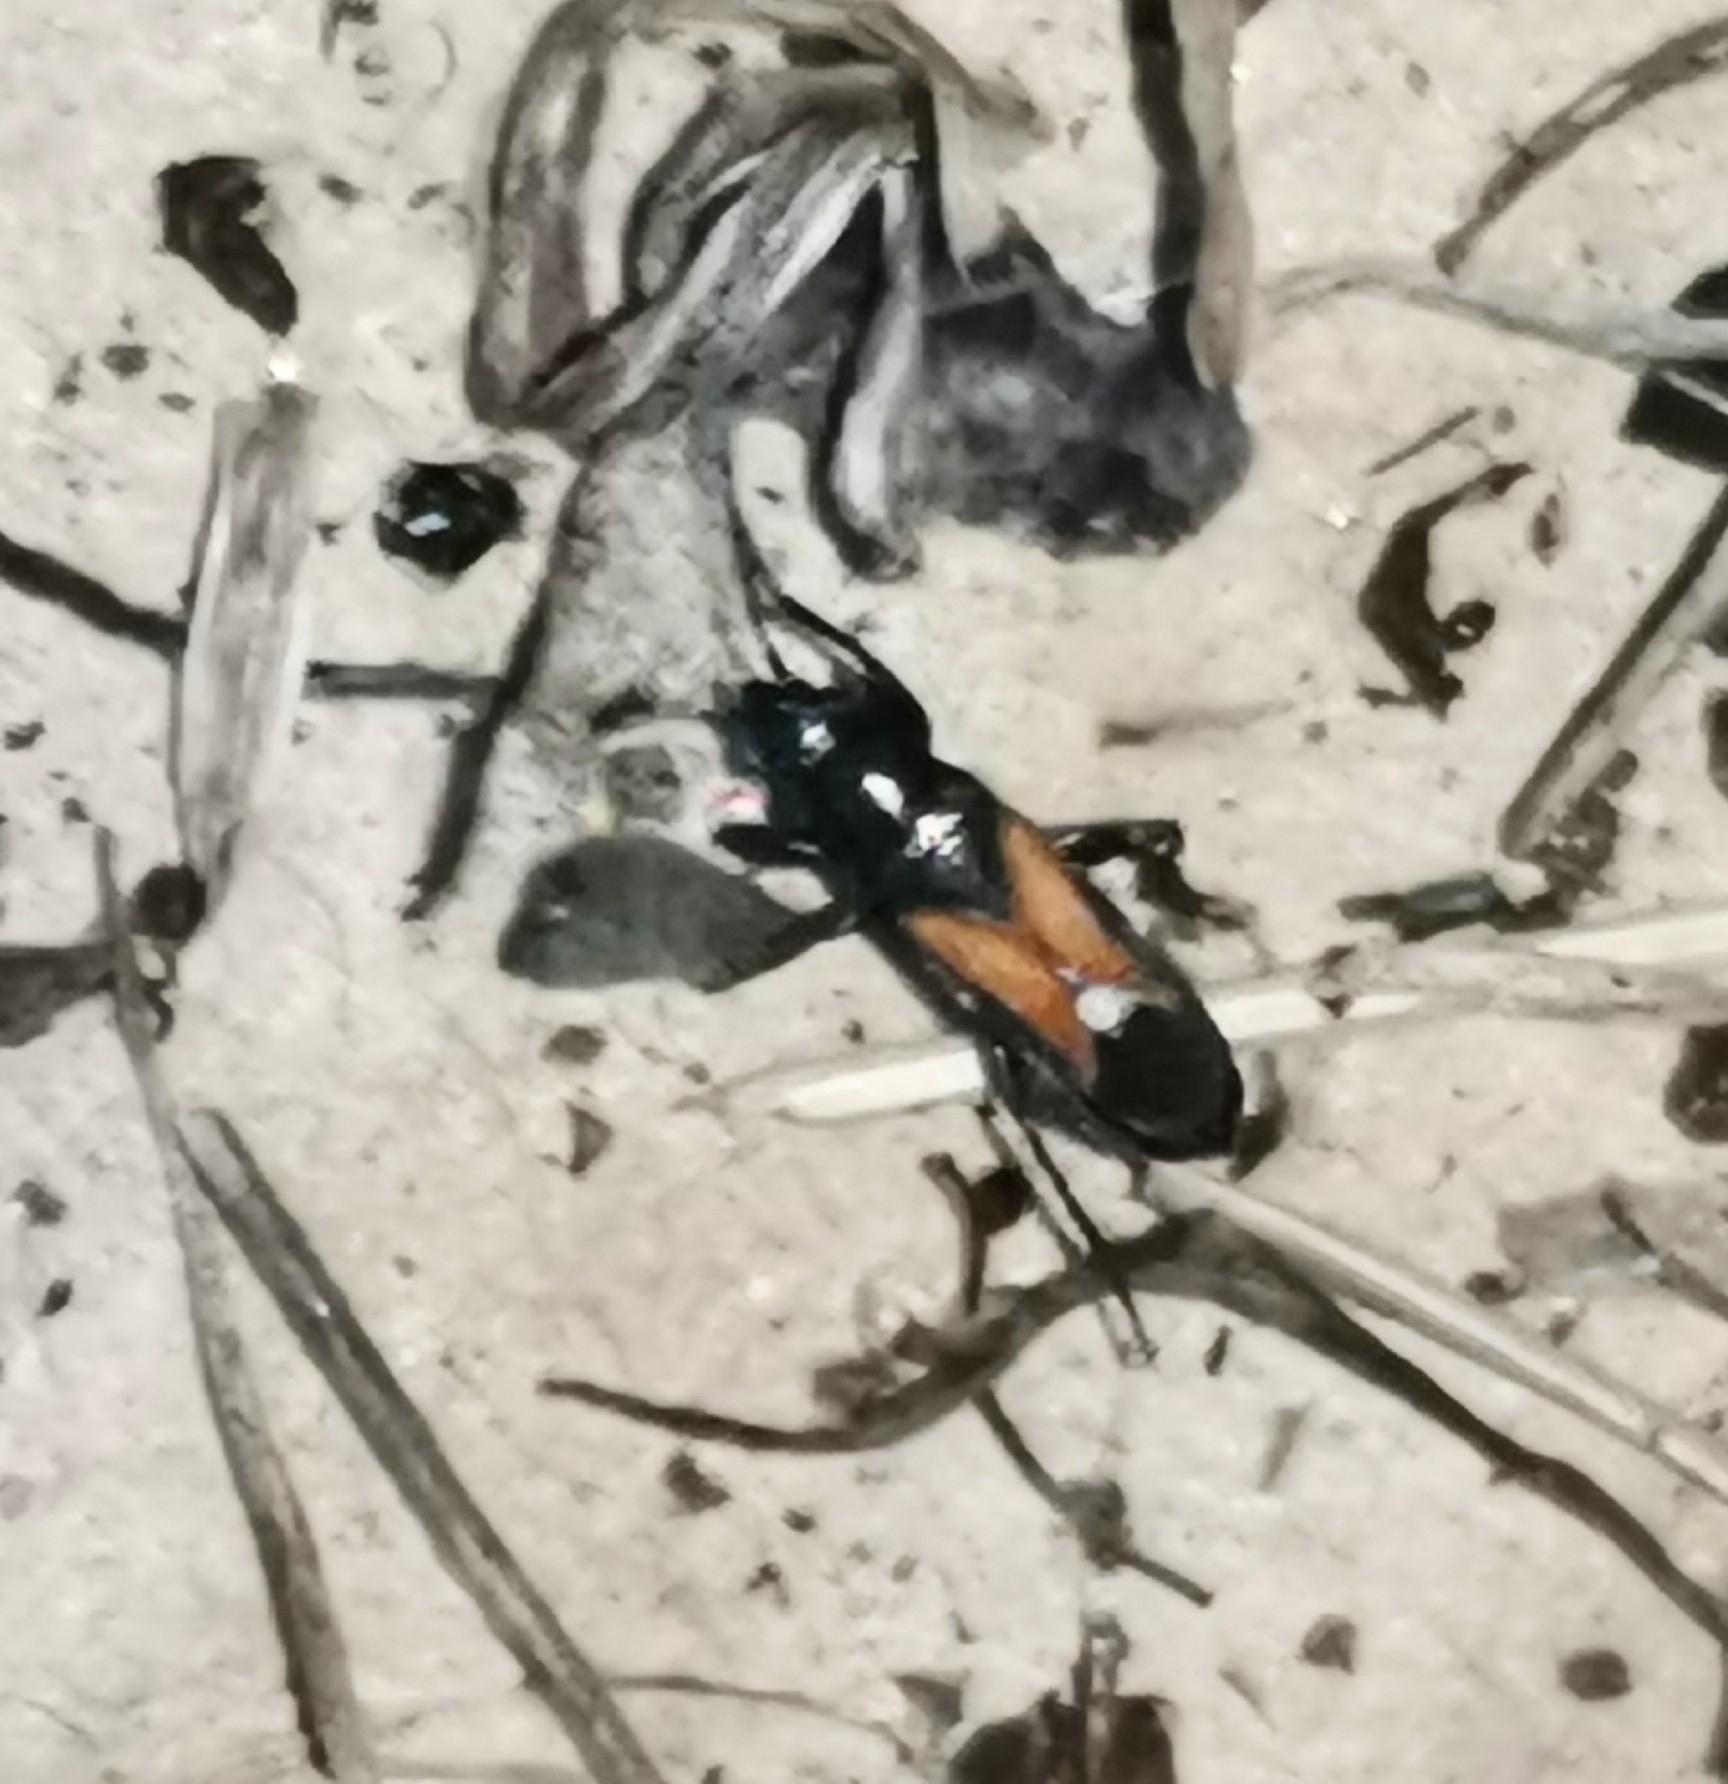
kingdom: Animalia
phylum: Arthropoda
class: Insecta
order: Hemiptera
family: Rhyparochromidae
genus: Pterotmetus
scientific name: Pterotmetus staphyliniformis
